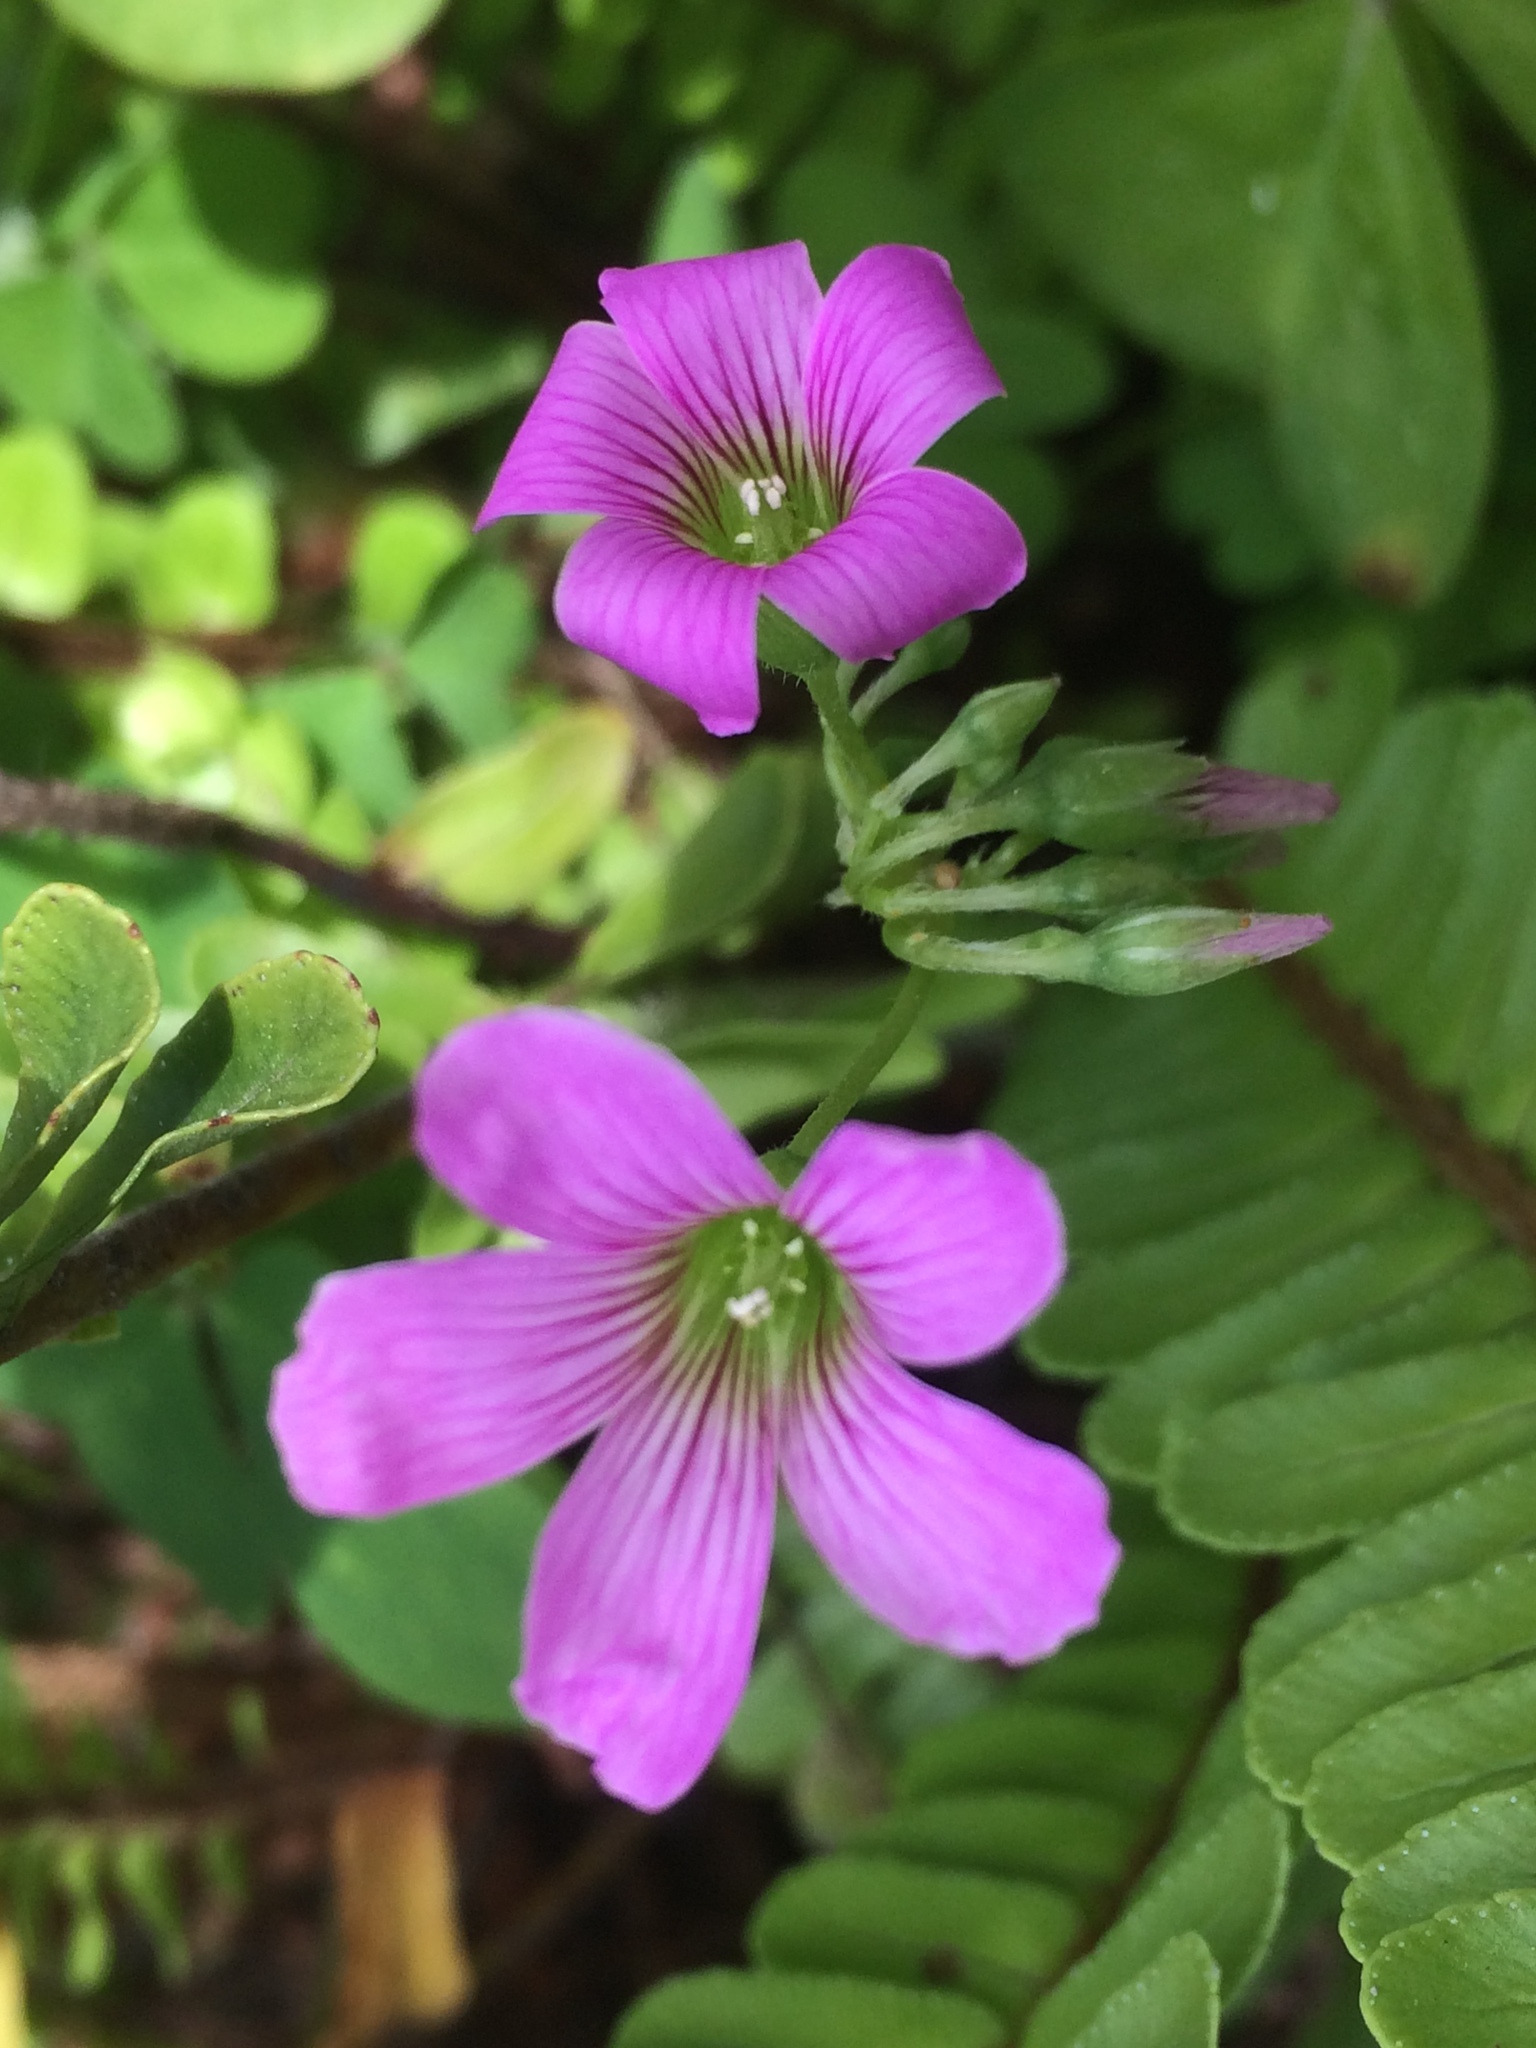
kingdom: Plantae
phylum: Tracheophyta
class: Magnoliopsida
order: Oxalidales
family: Oxalidaceae
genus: Oxalis
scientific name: Oxalis debilis
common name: Large-flowered pink-sorrel
